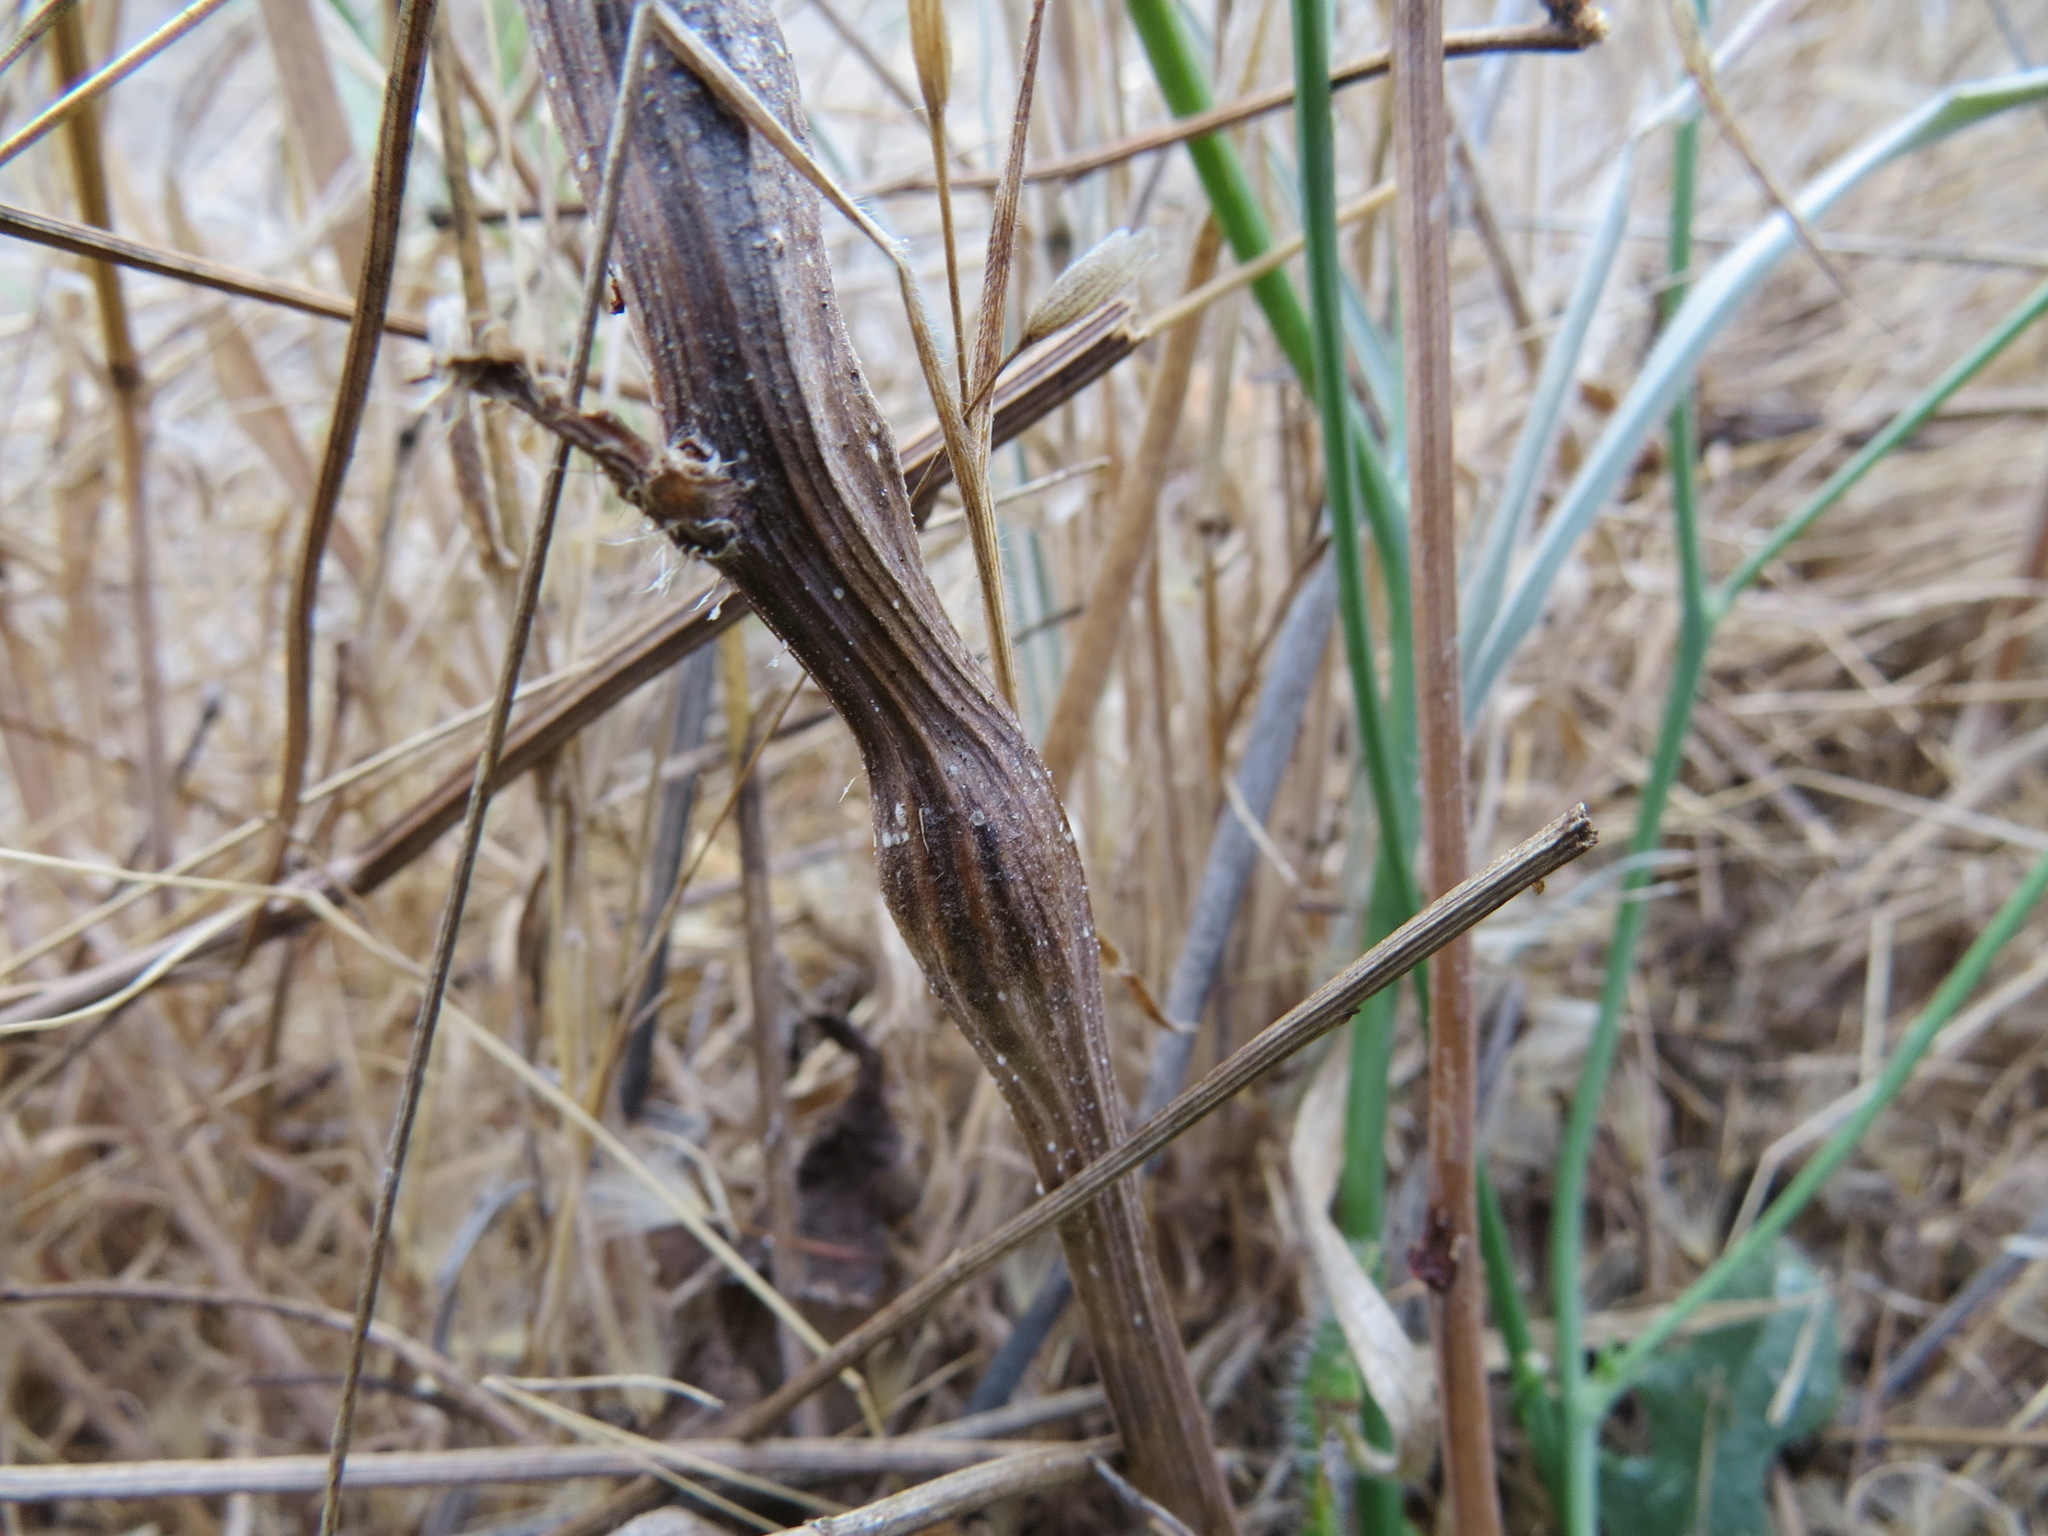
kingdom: Animalia
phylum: Arthropoda
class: Insecta
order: Hymenoptera
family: Cynipidae
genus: Phanacis
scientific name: Phanacis hypochoeridis
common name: Gall wasp
